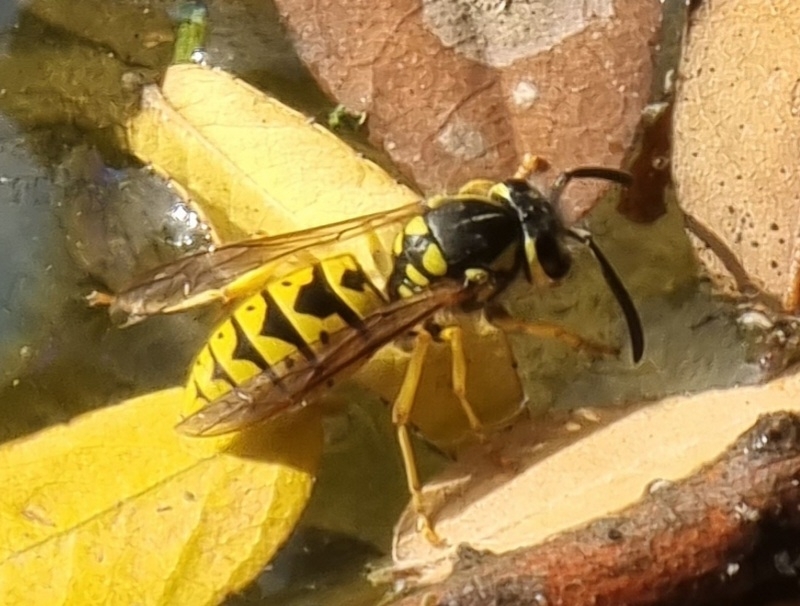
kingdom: Animalia
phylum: Arthropoda
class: Insecta
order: Hymenoptera
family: Vespidae
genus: Vespula
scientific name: Vespula germanica
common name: German wasp
